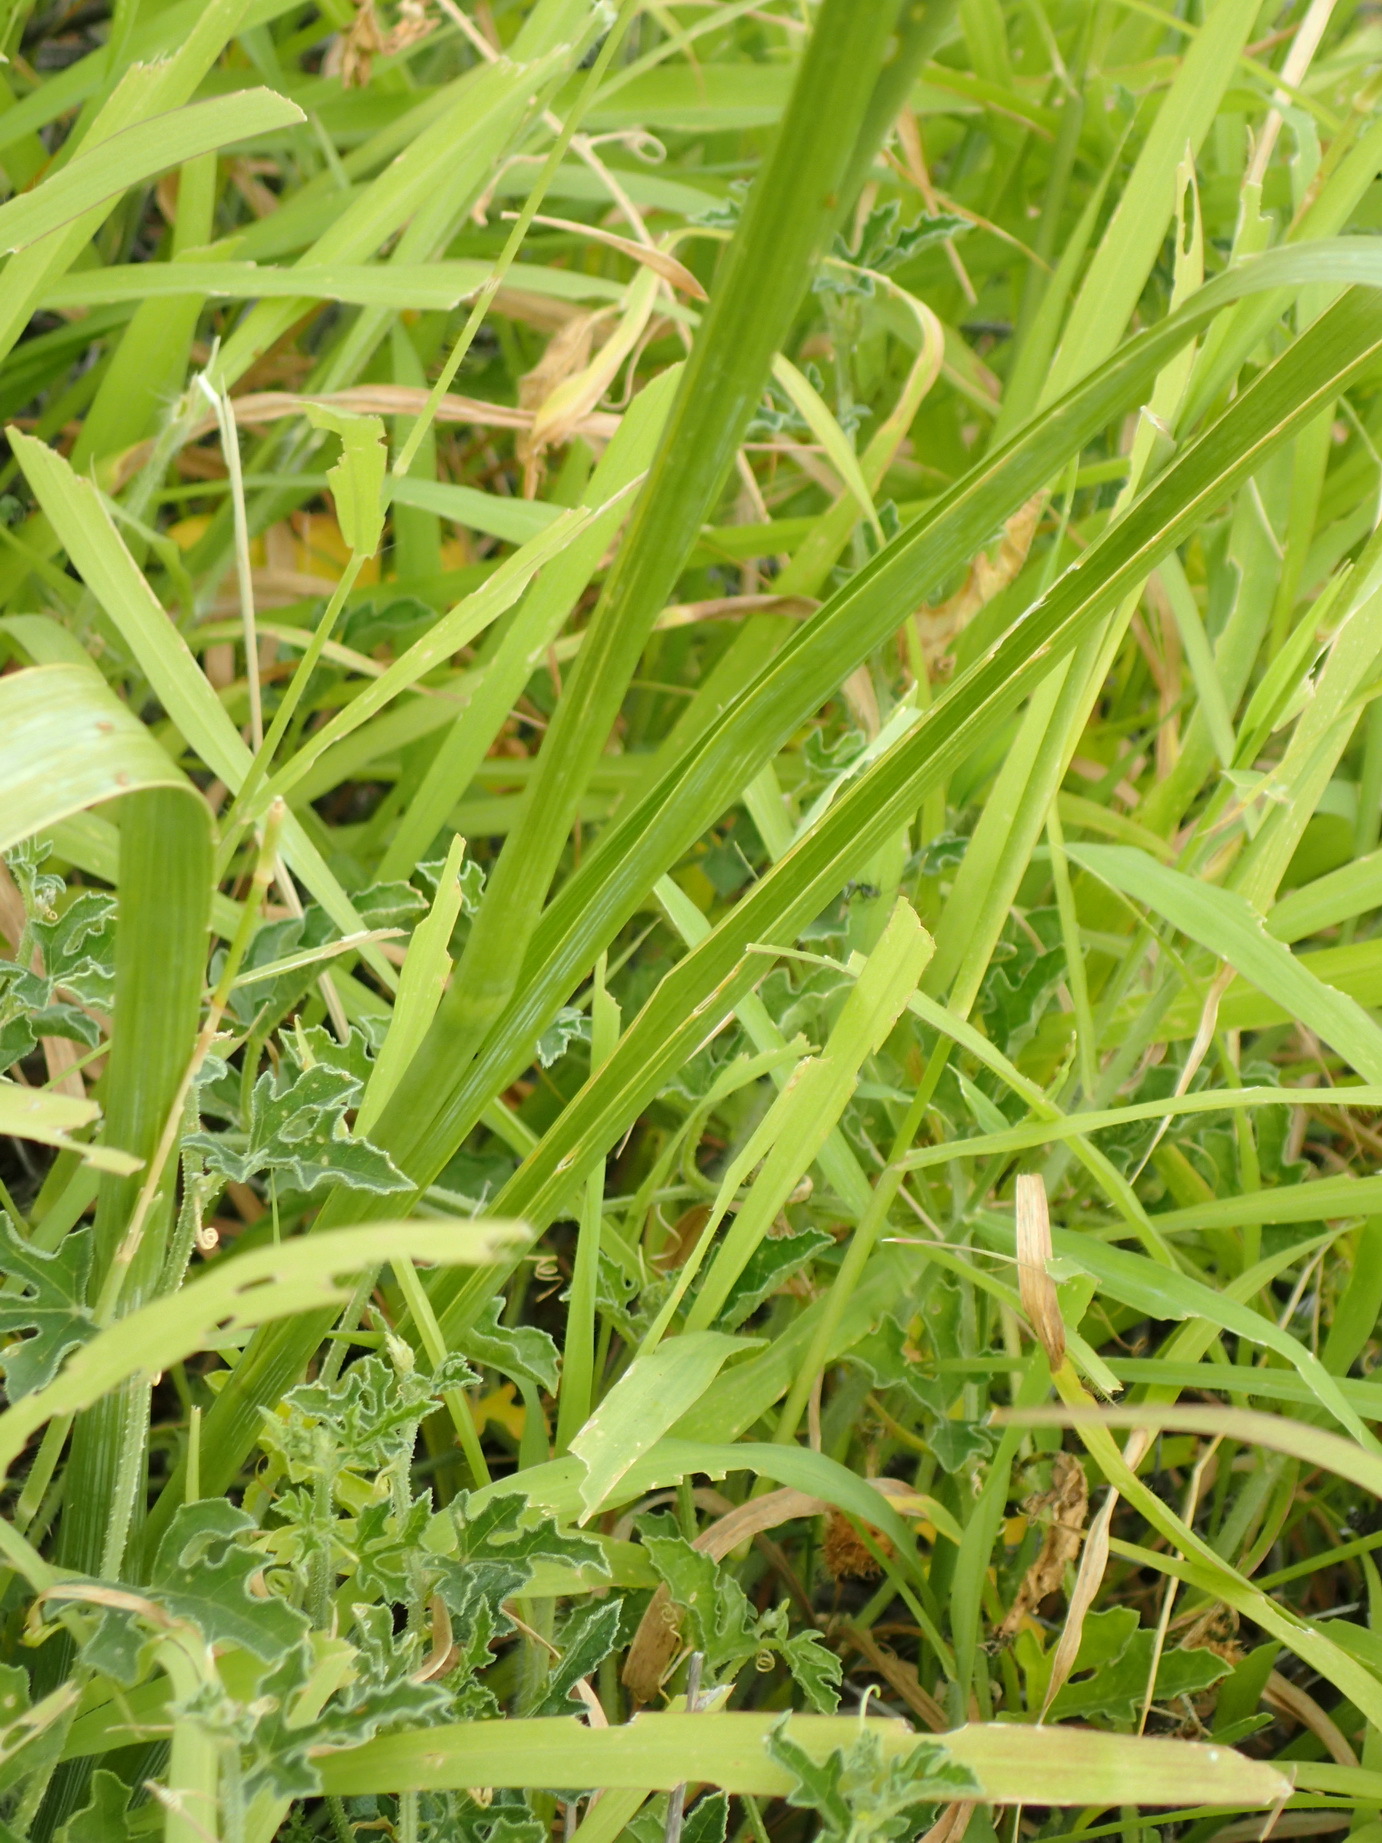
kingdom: Plantae
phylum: Tracheophyta
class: Liliopsida
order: Asparagales
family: Iridaceae
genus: Moraea
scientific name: Moraea polystachya
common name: Blue-tulip
